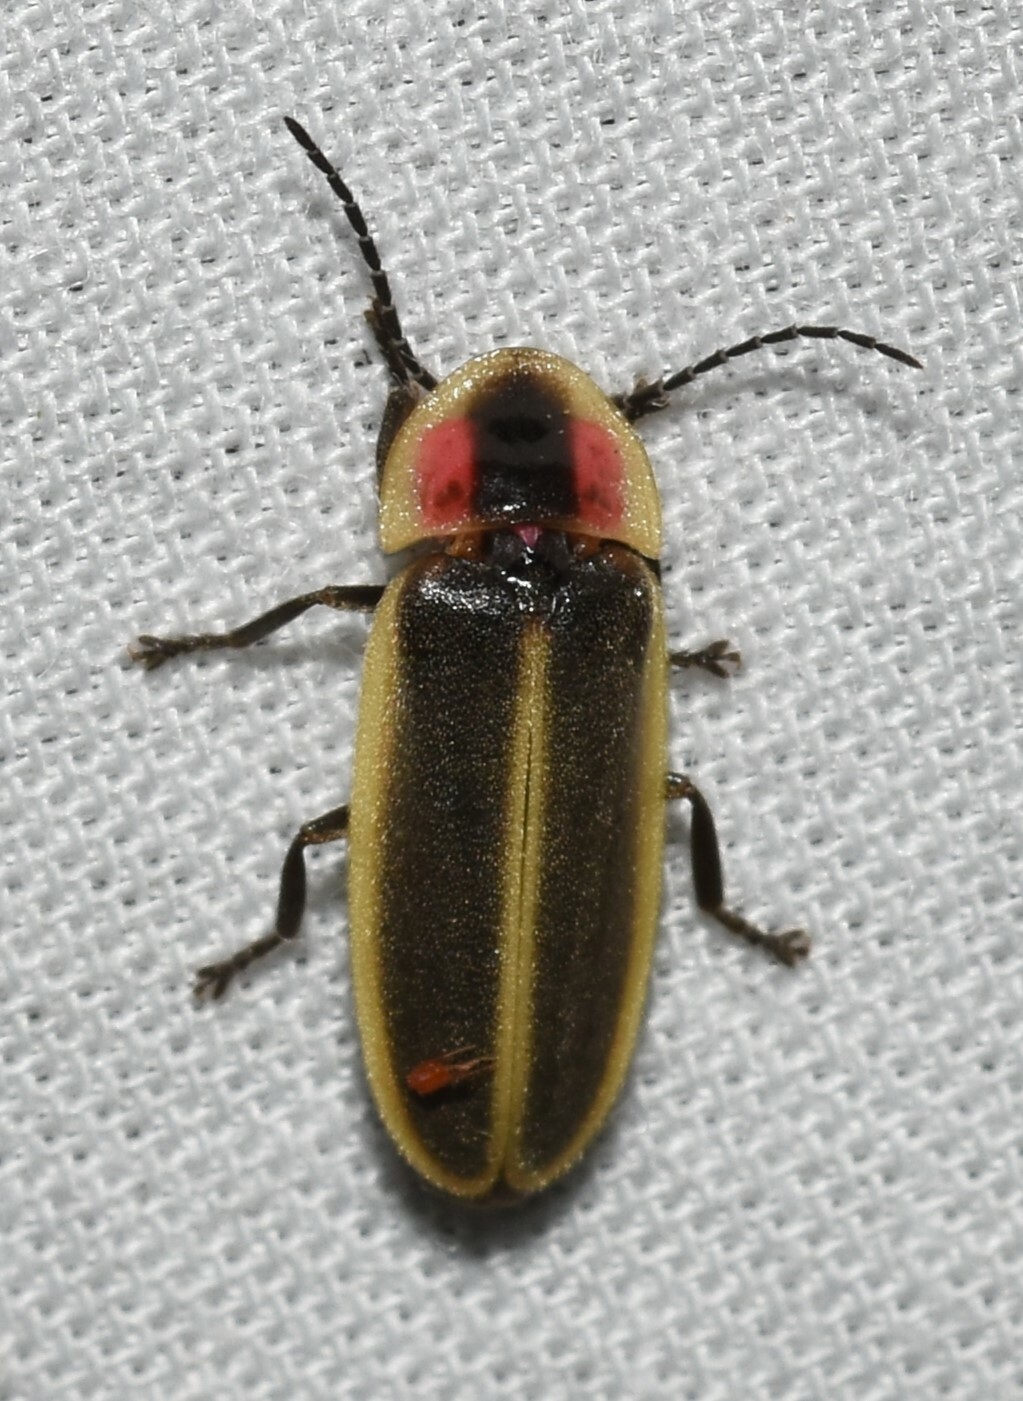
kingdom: Animalia
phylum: Arthropoda
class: Insecta
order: Coleoptera
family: Lampyridae
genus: Photinus
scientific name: Photinus pyralis
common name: Big dipper firefly
